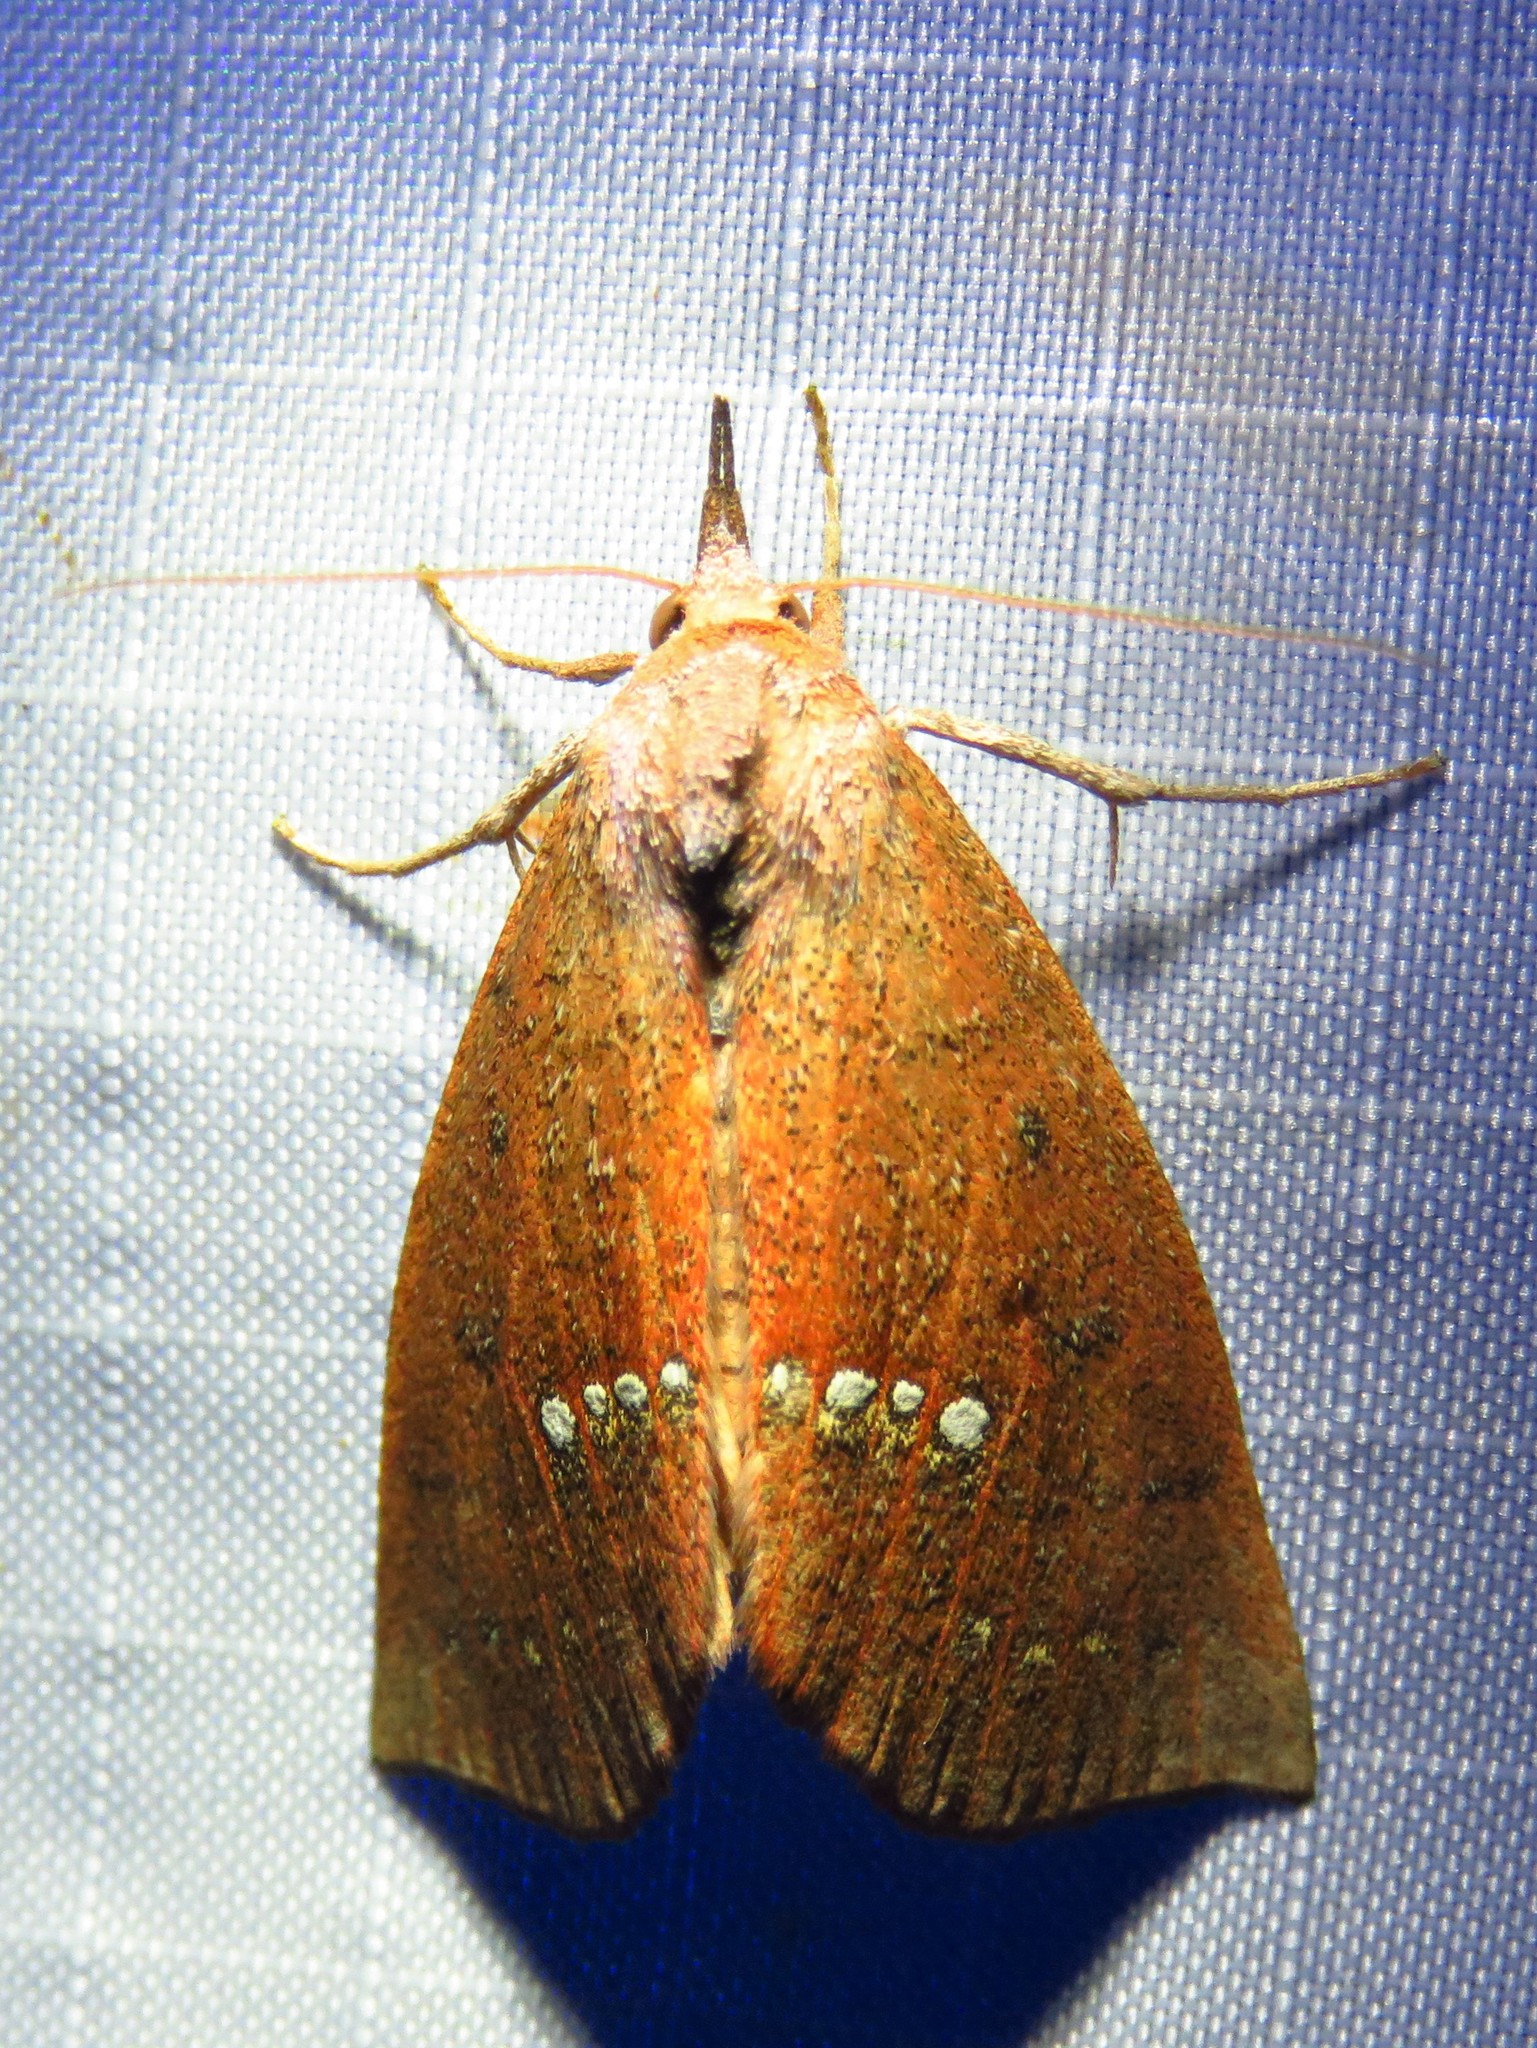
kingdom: Animalia
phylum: Arthropoda
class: Insecta
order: Lepidoptera
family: Erebidae
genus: Hypsoropha
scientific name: Hypsoropha monilis
